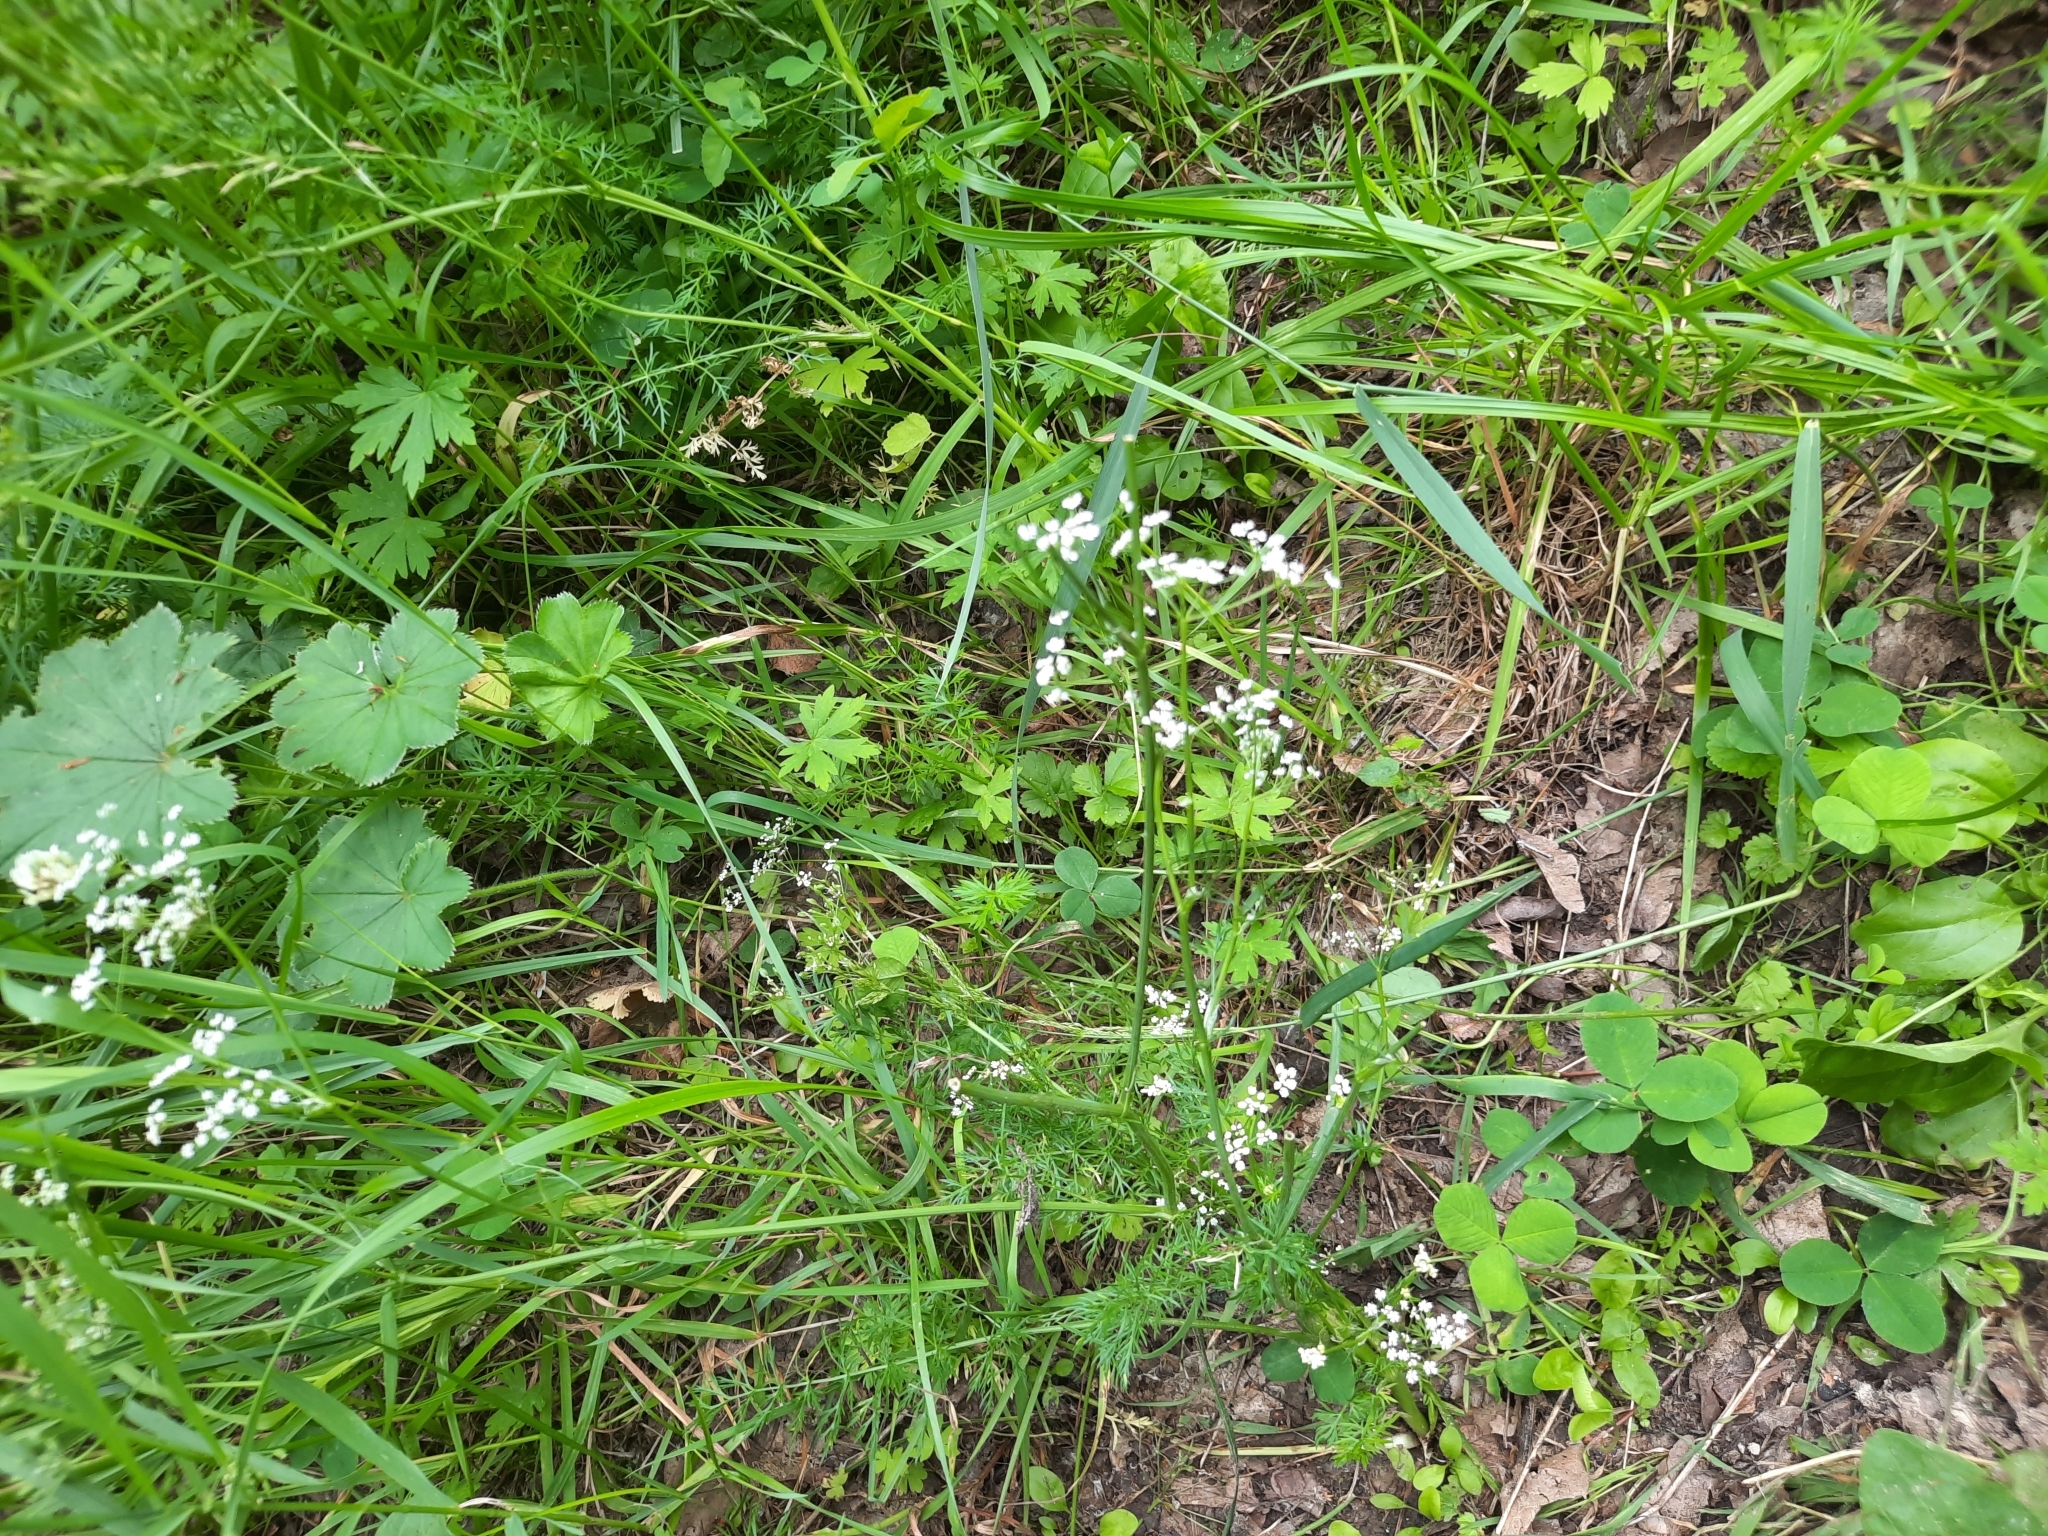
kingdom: Plantae
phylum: Tracheophyta
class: Magnoliopsida
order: Apiales
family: Apiaceae
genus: Carum
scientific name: Carum carvi
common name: Caraway
